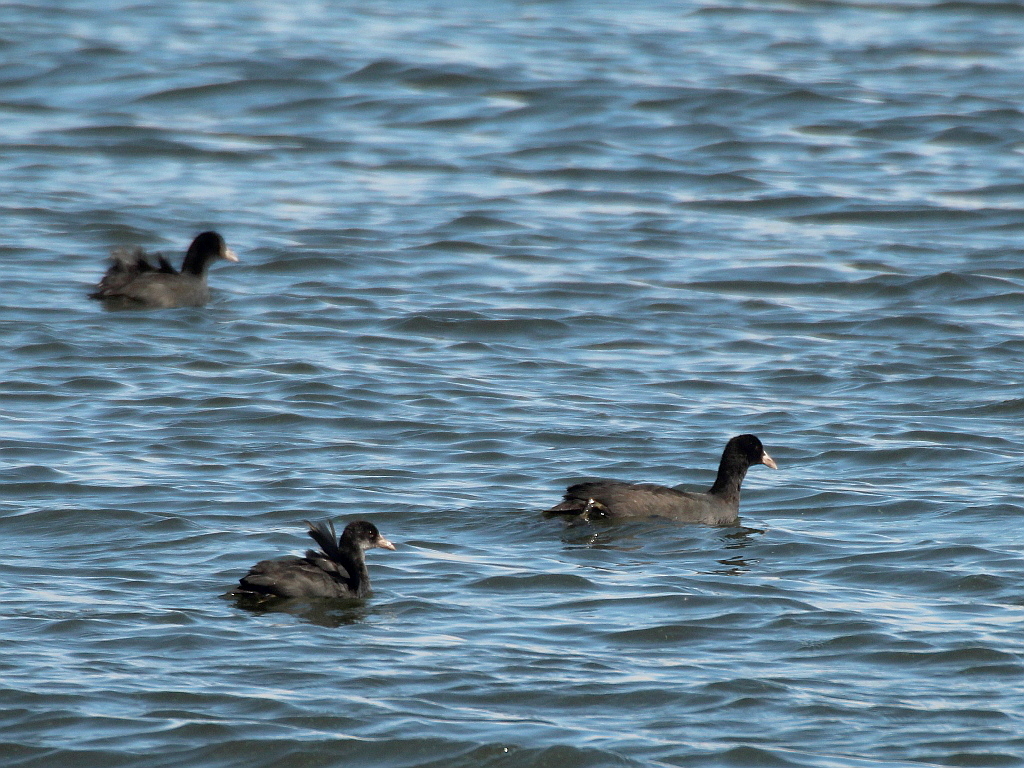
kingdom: Animalia
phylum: Chordata
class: Aves
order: Gruiformes
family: Rallidae
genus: Fulica
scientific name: Fulica atra
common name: Eurasian coot
